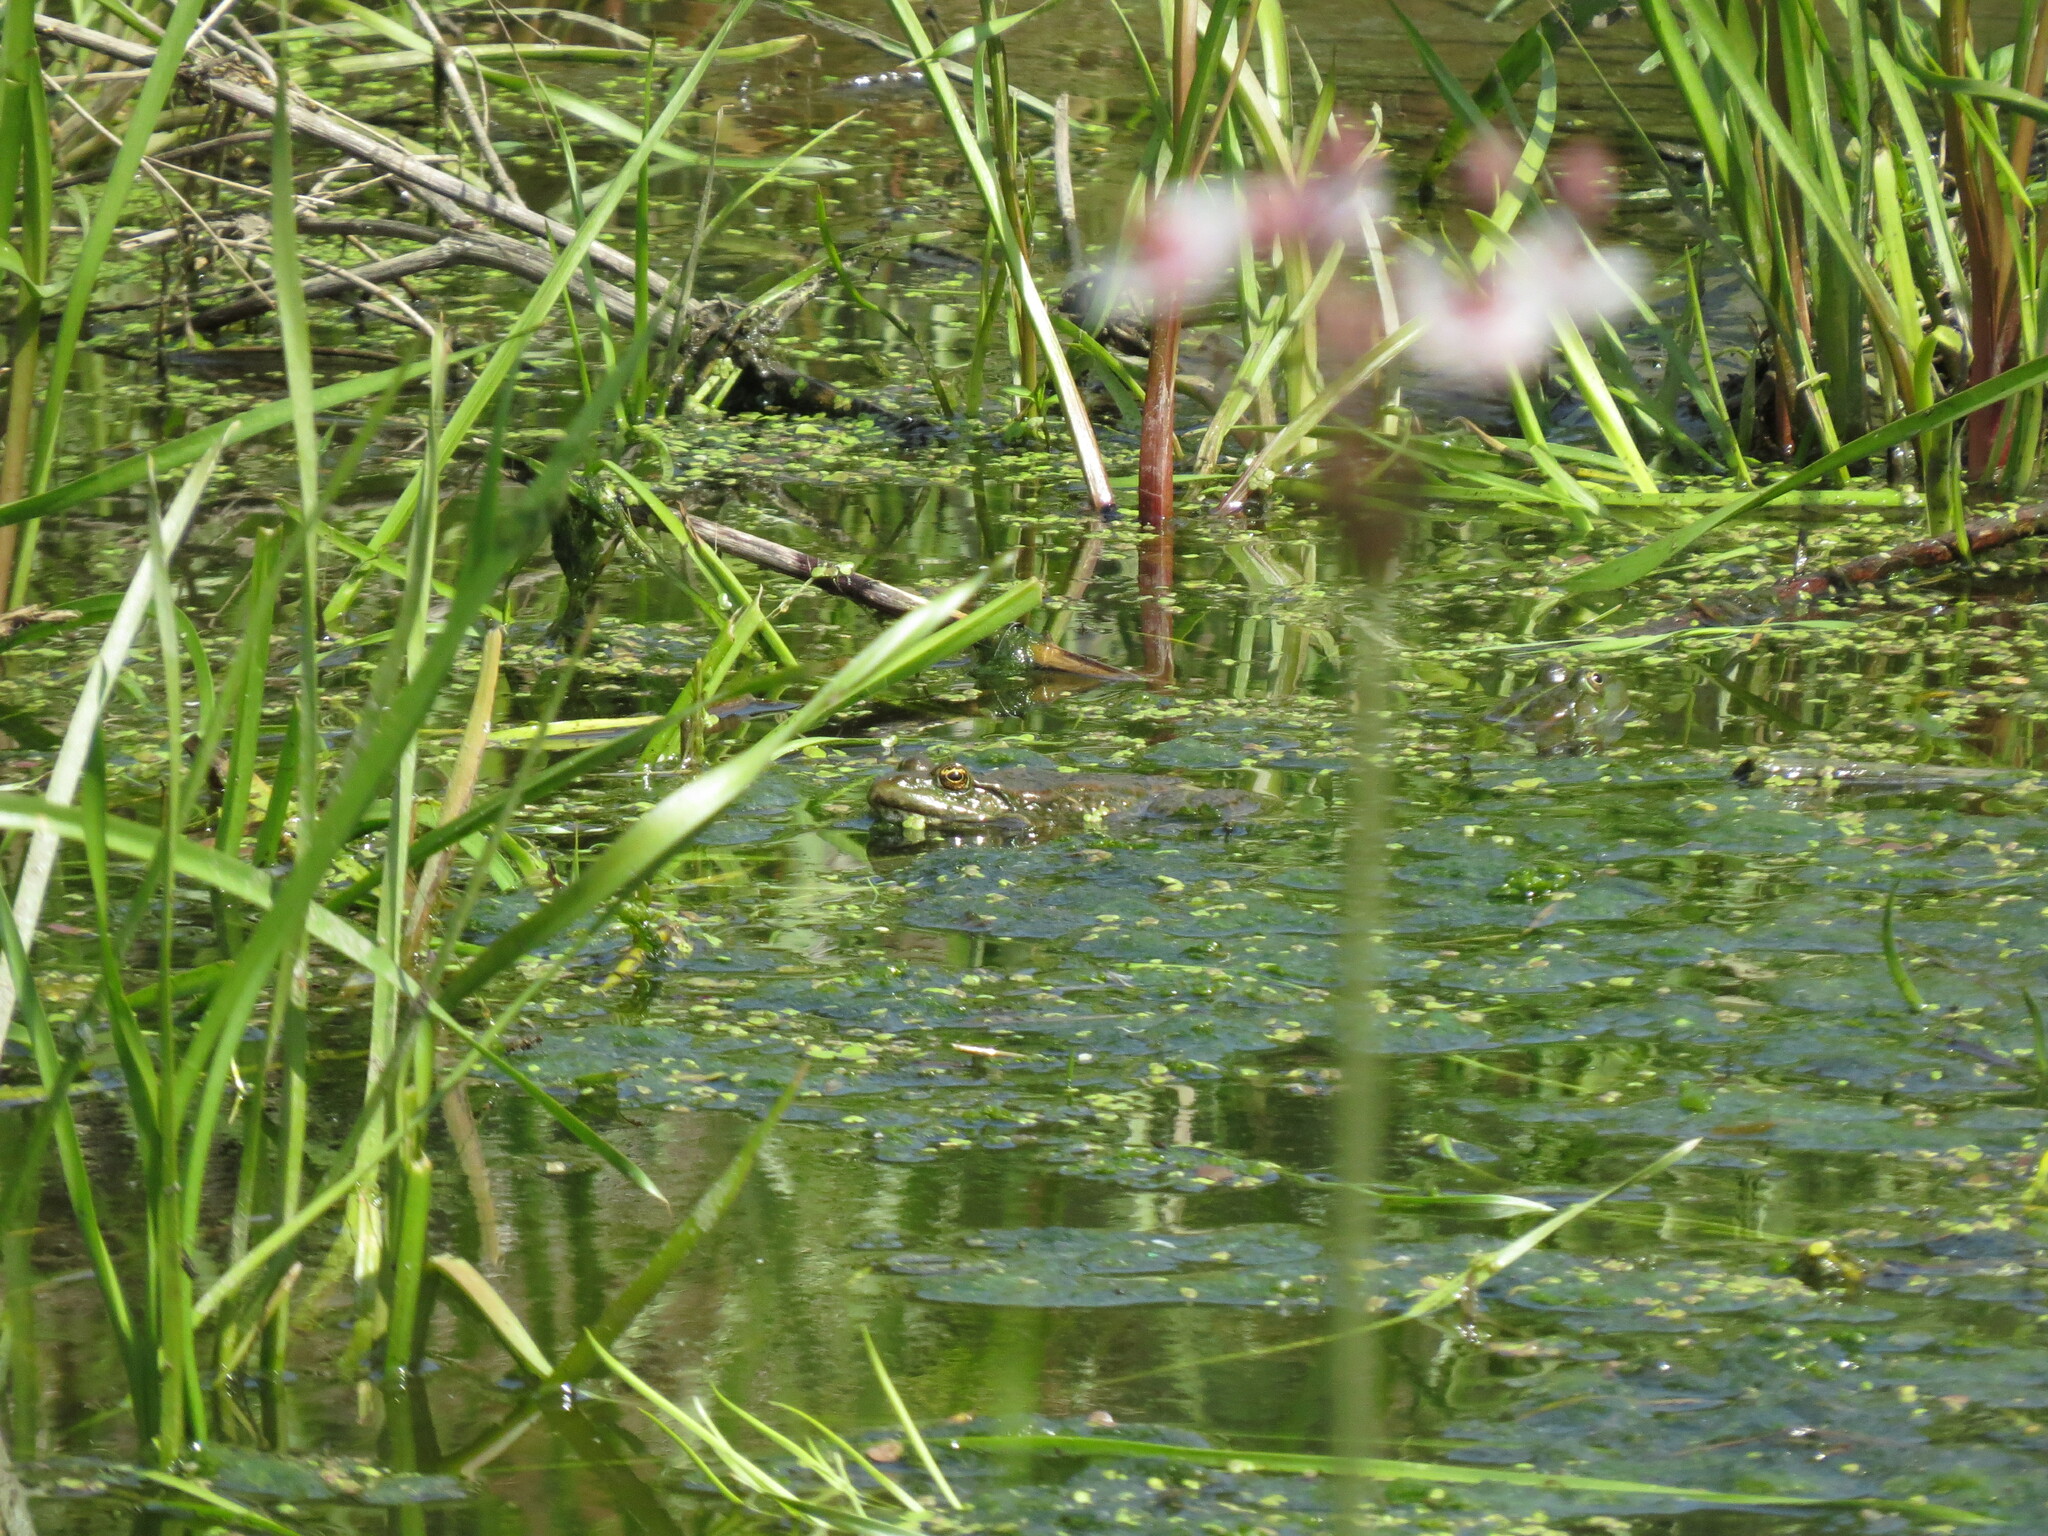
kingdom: Animalia
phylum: Chordata
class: Amphibia
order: Anura
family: Ranidae
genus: Pelophylax
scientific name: Pelophylax ridibundus
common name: Marsh frog
